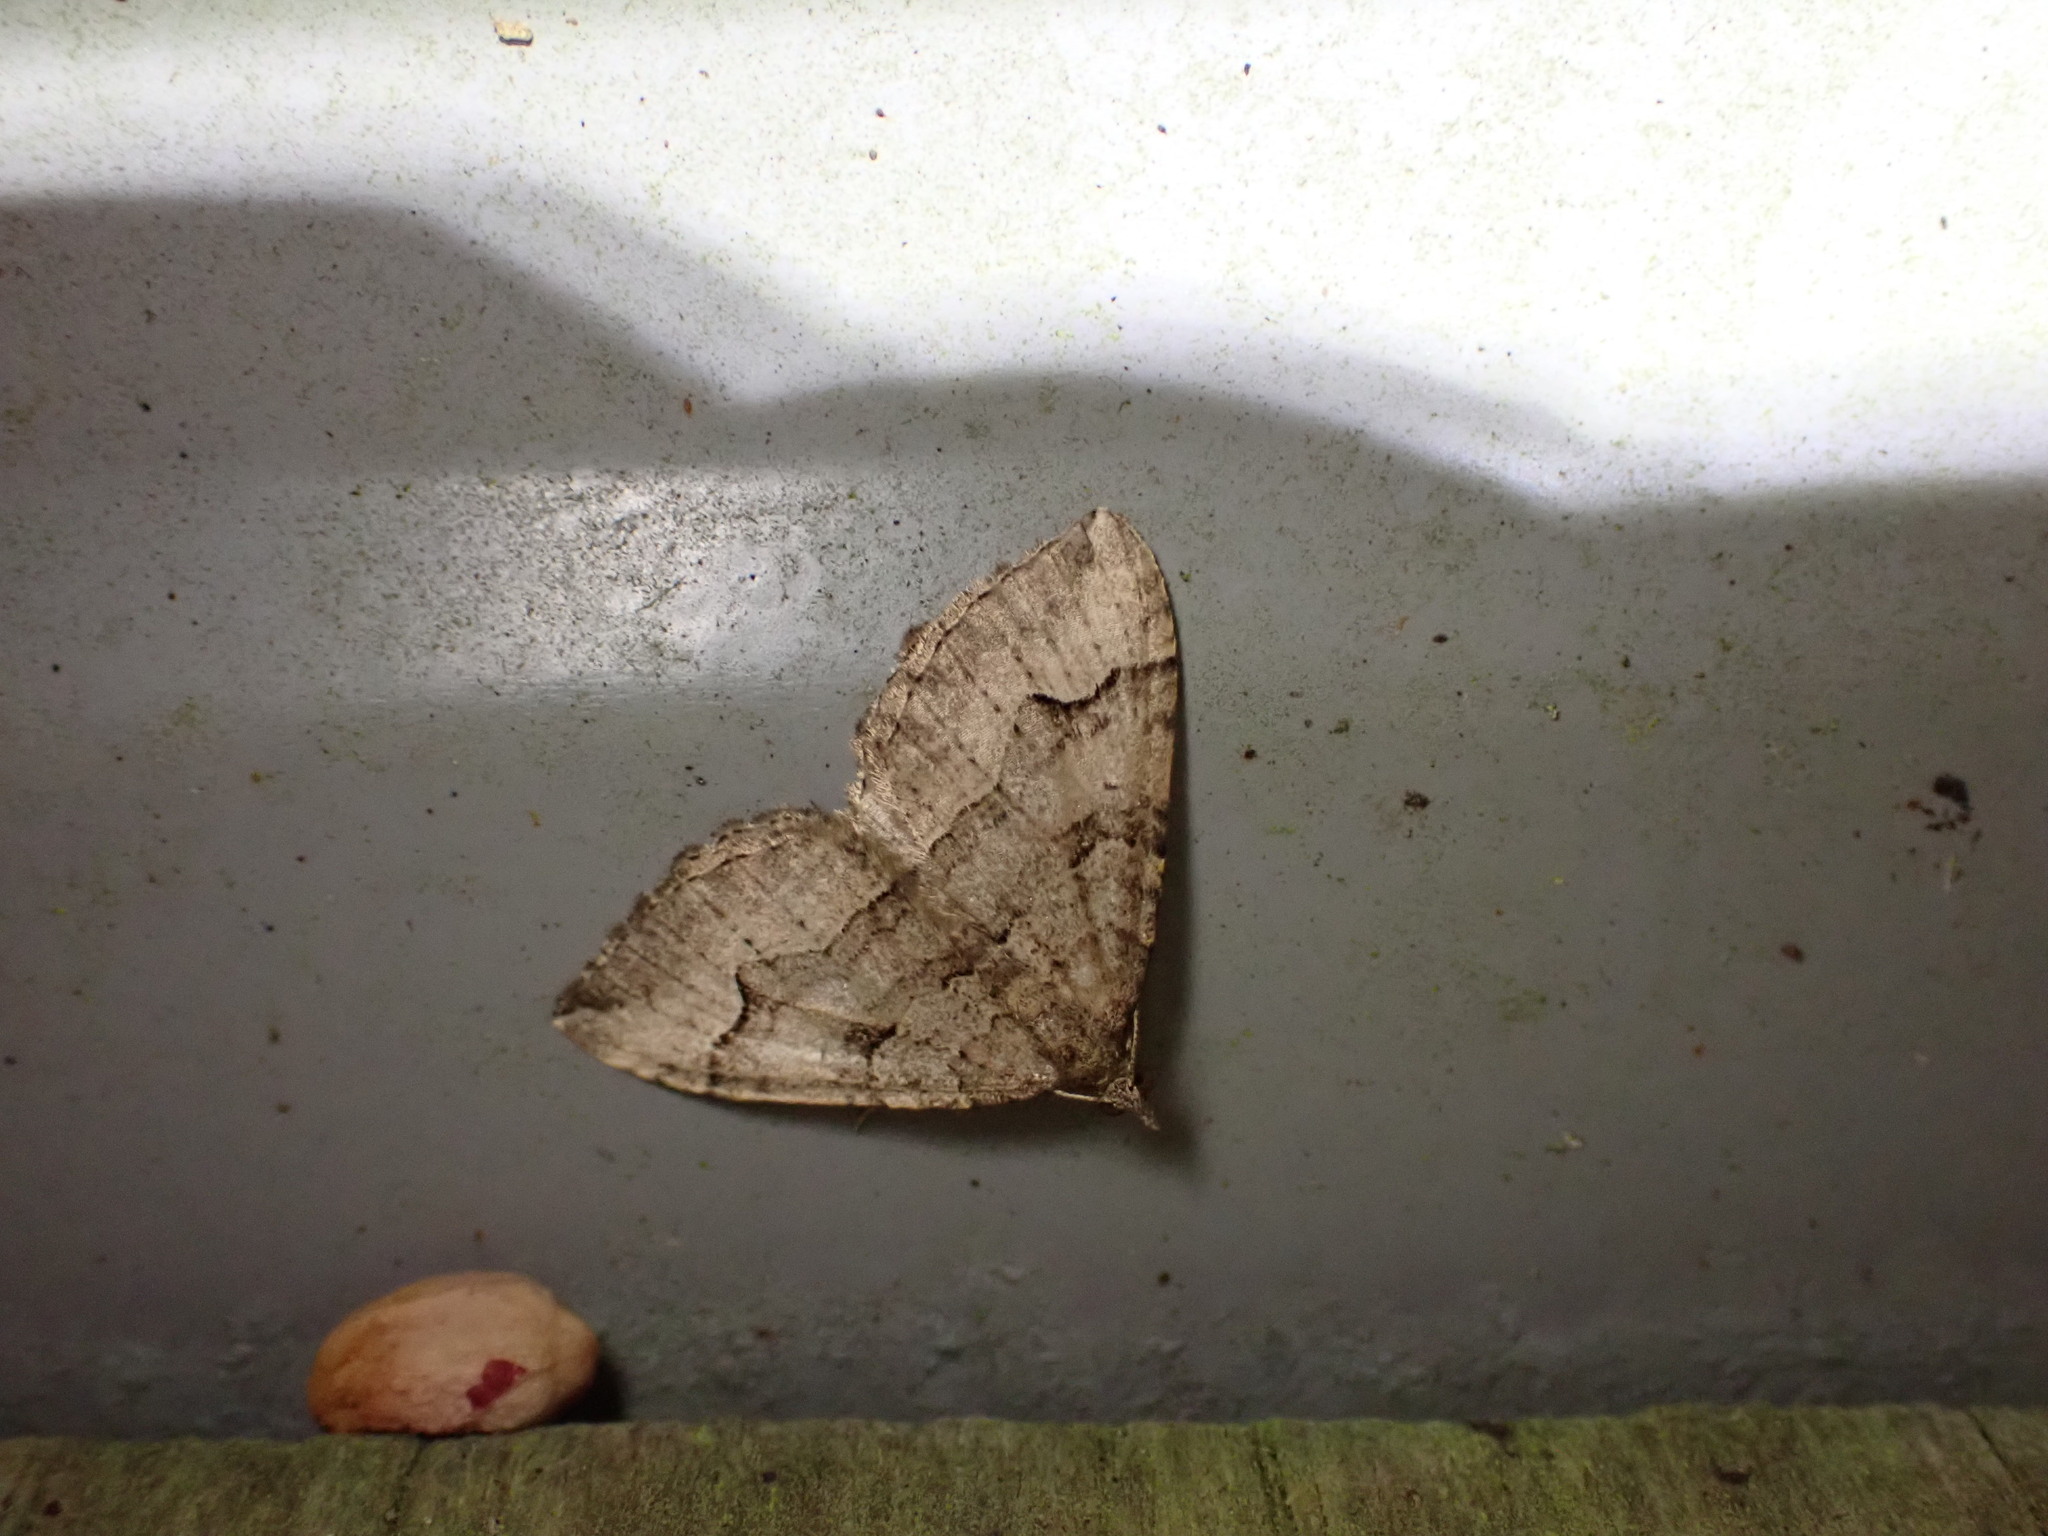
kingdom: Animalia
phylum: Arthropoda
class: Insecta
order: Lepidoptera
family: Geometridae
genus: Epyaxa
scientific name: Epyaxa rosearia
